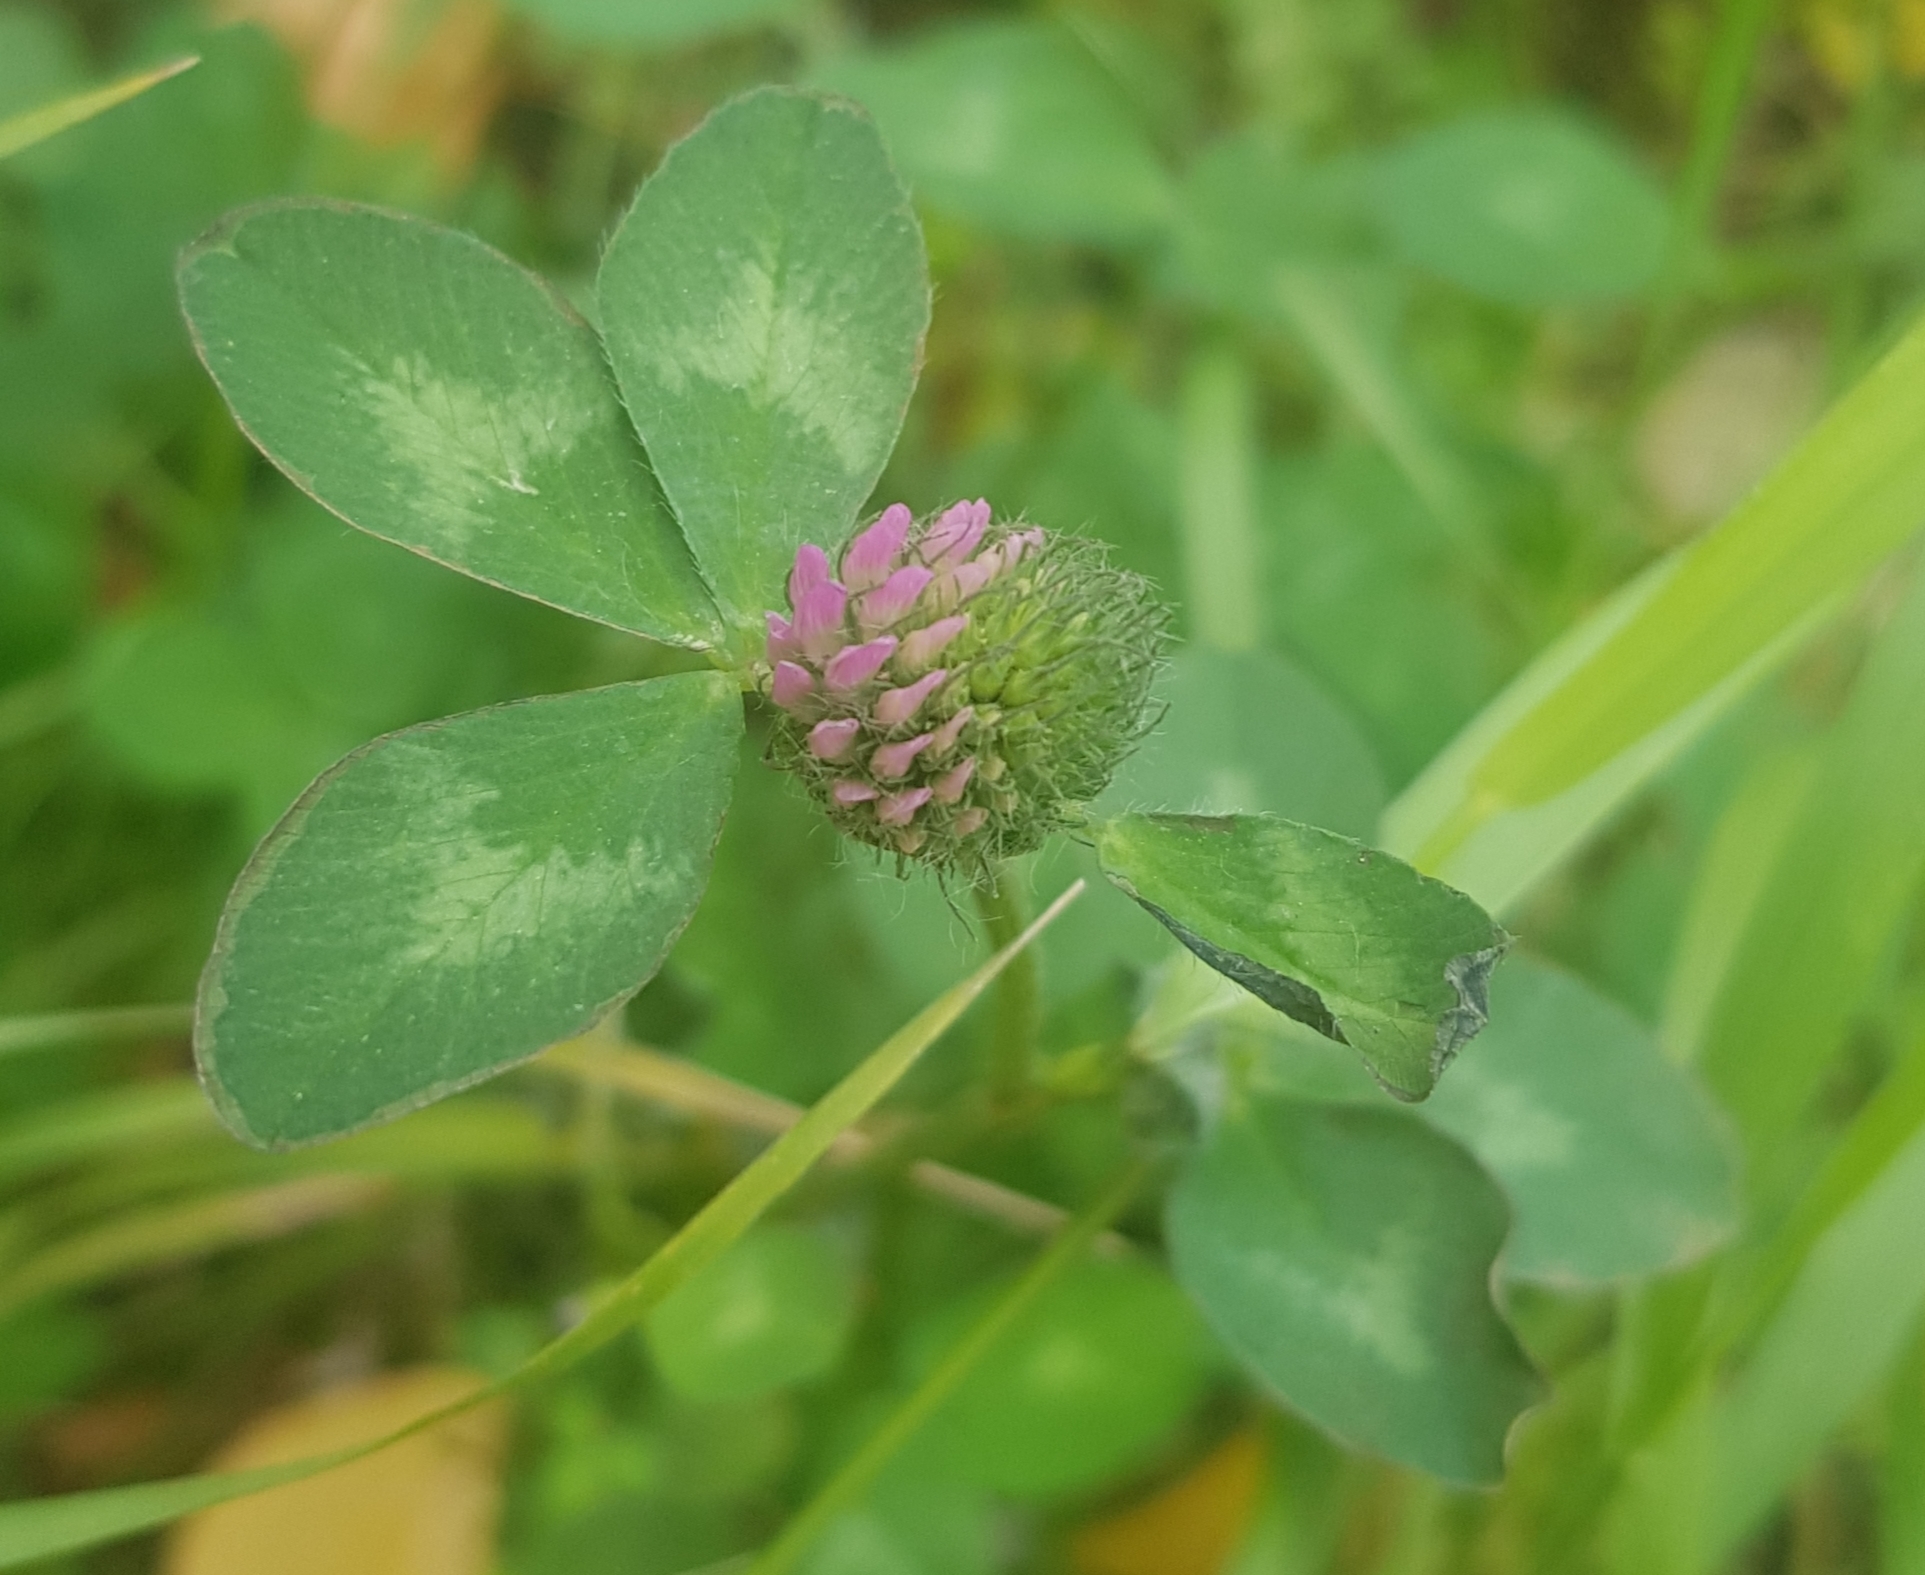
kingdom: Plantae
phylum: Tracheophyta
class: Magnoliopsida
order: Fabales
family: Fabaceae
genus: Trifolium
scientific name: Trifolium pratense
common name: Red clover
